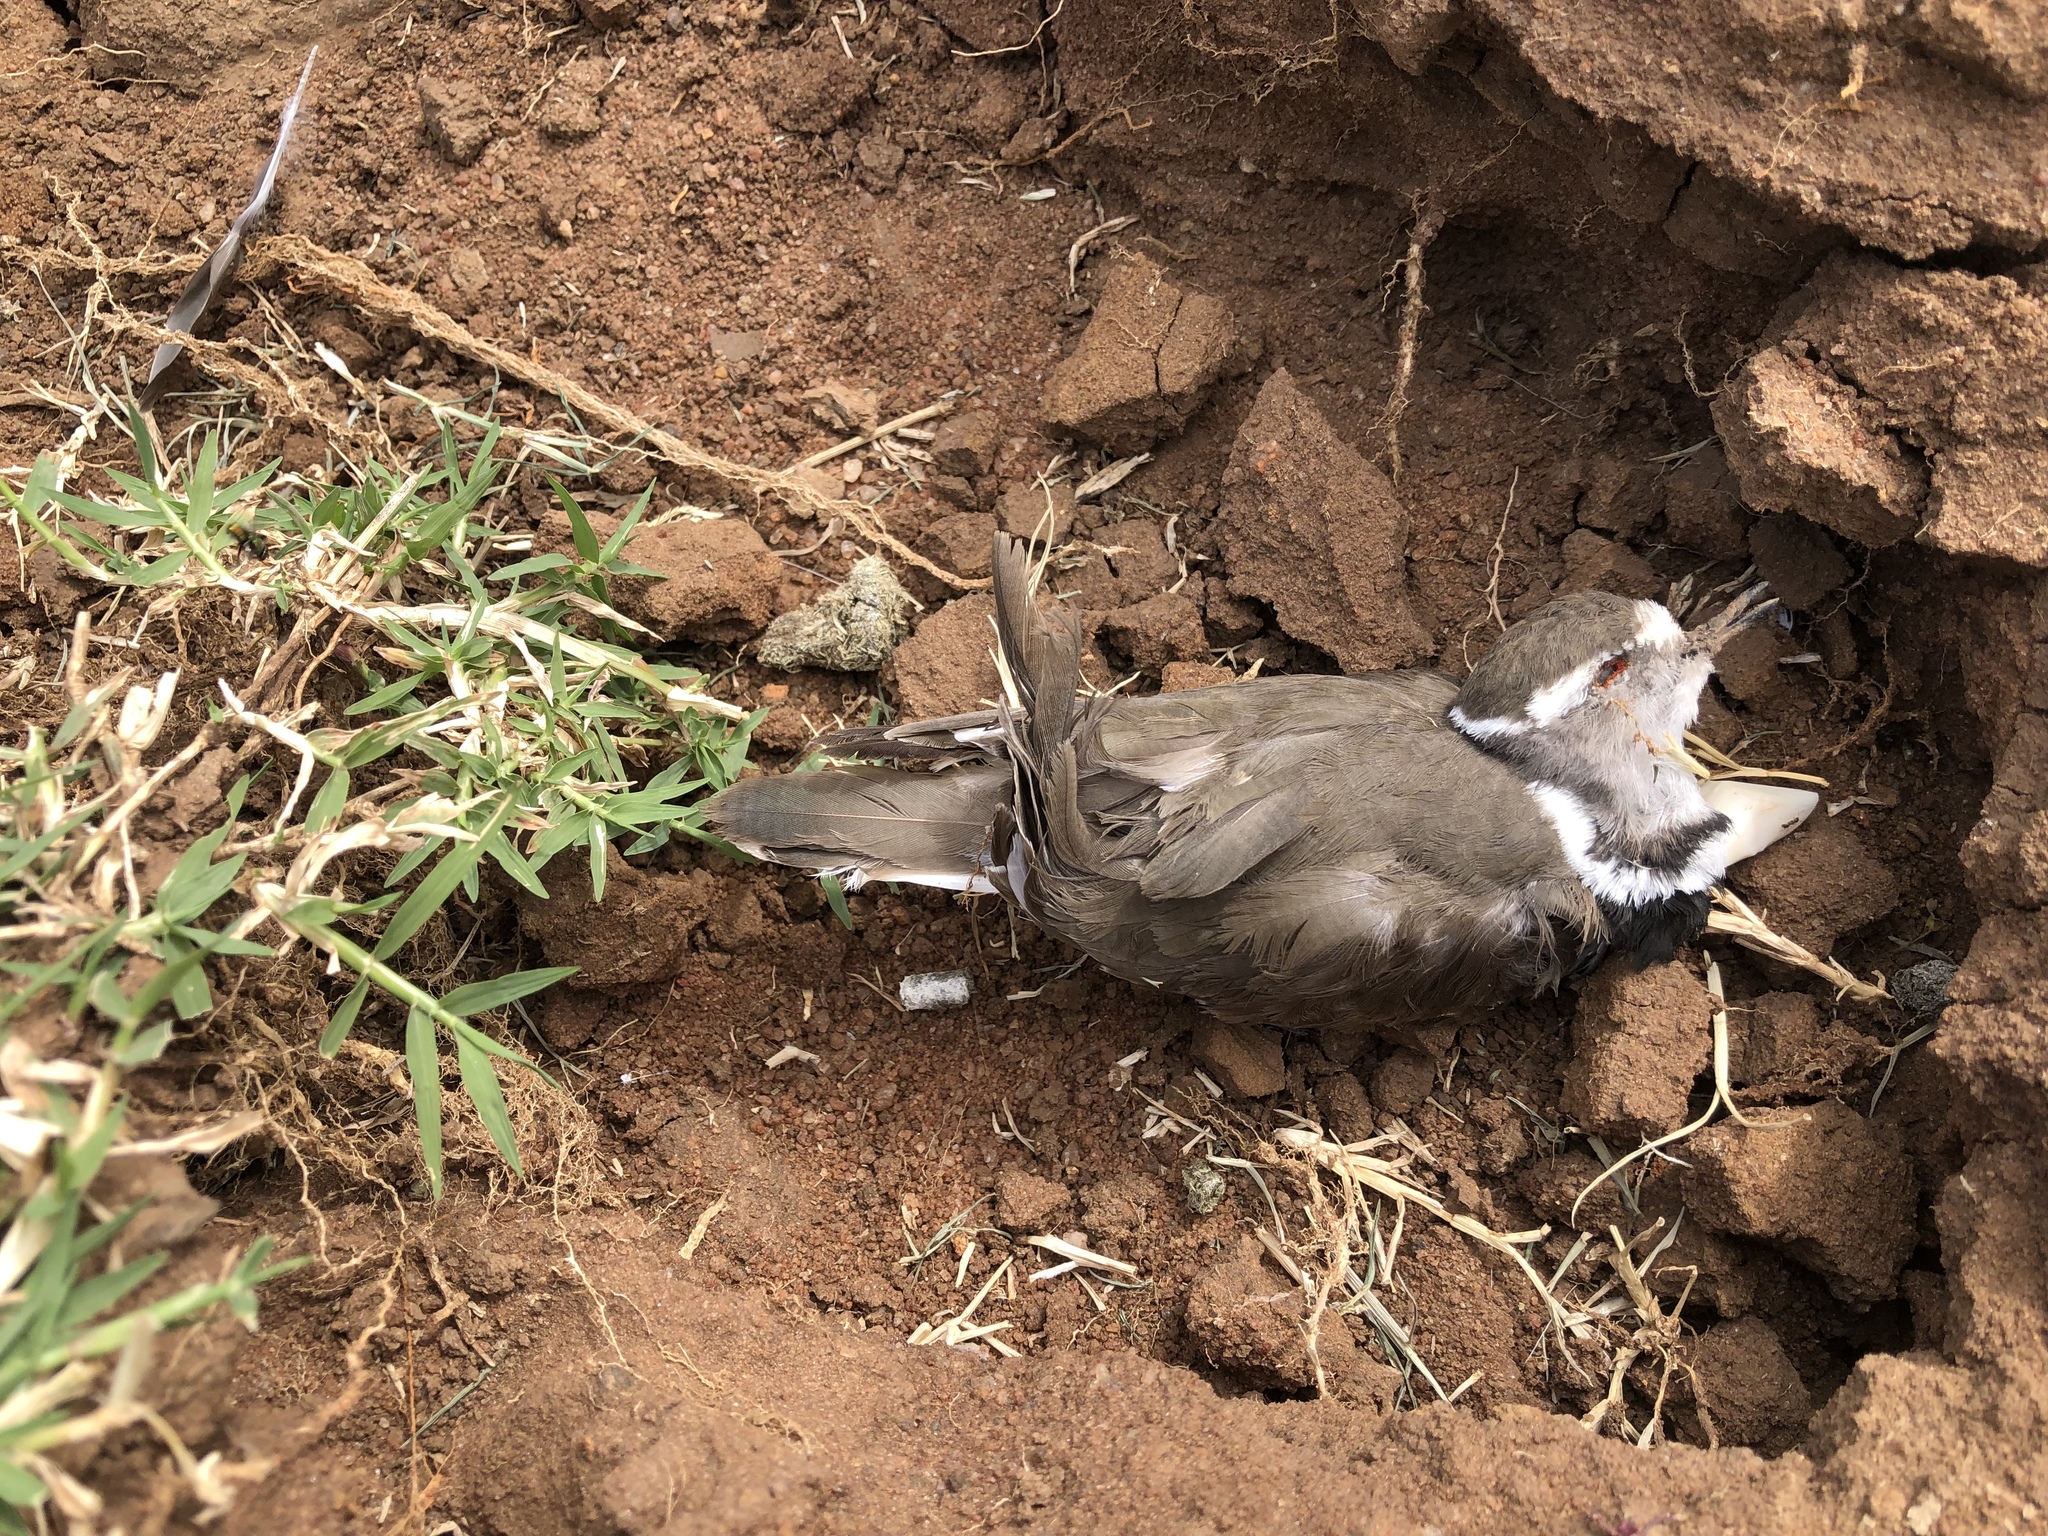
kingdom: Animalia
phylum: Chordata
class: Aves
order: Charadriiformes
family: Charadriidae
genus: Charadrius
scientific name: Charadrius tricollaris
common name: Three-banded plover
